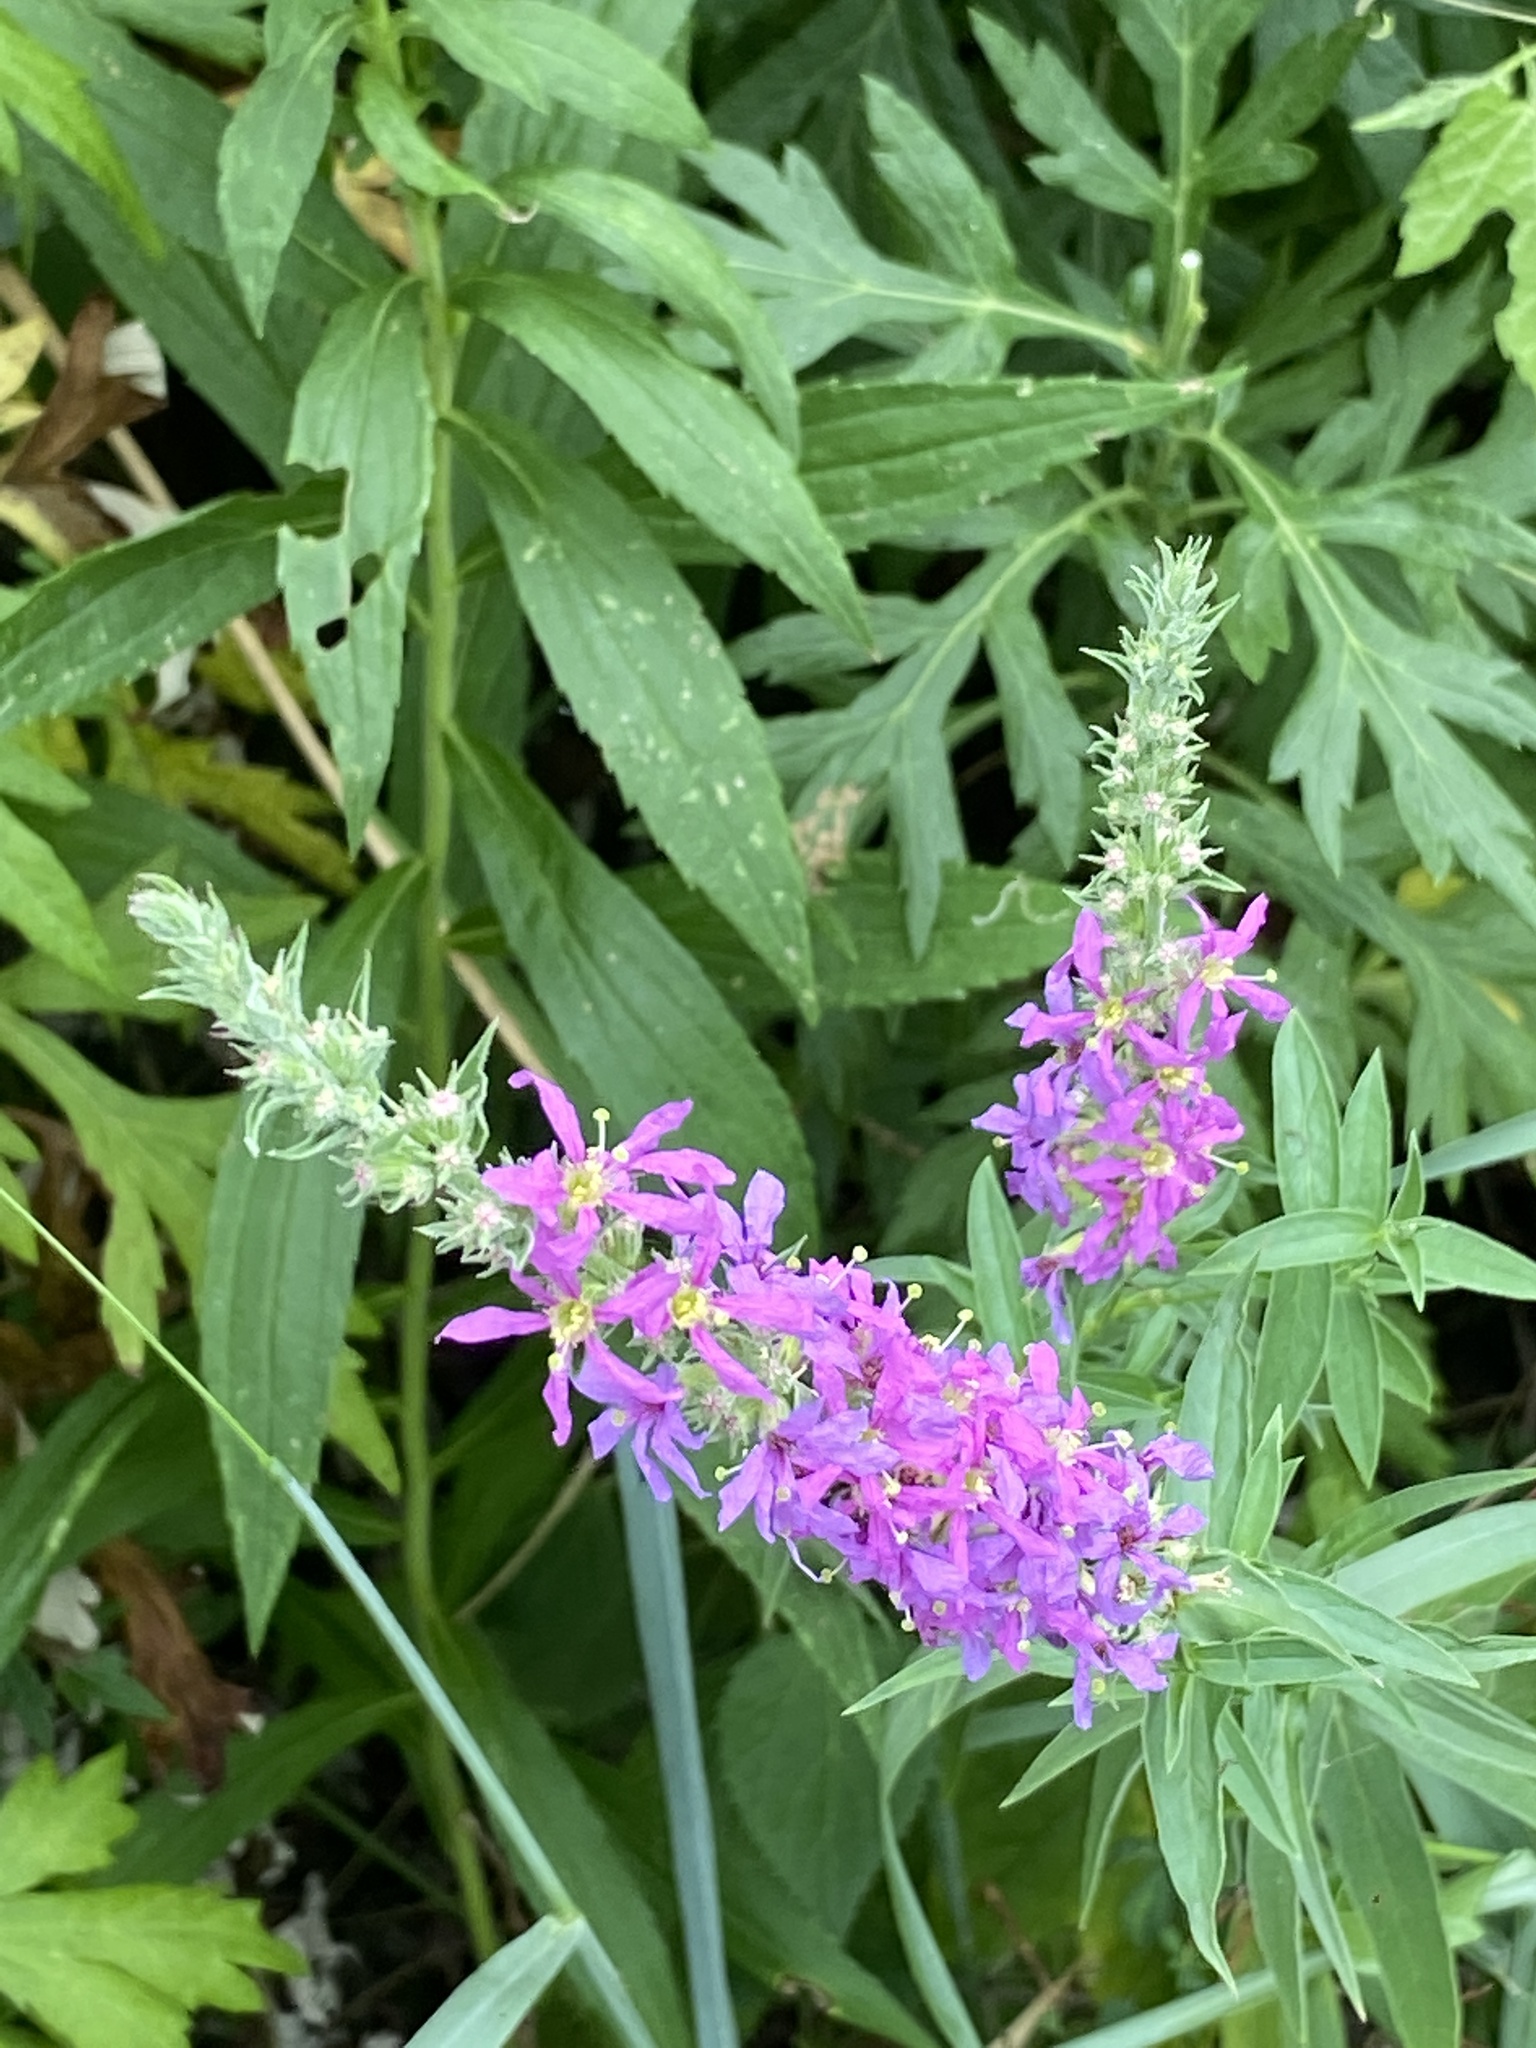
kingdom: Plantae
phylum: Tracheophyta
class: Magnoliopsida
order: Myrtales
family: Lythraceae
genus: Lythrum
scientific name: Lythrum salicaria
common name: Purple loosestrife
